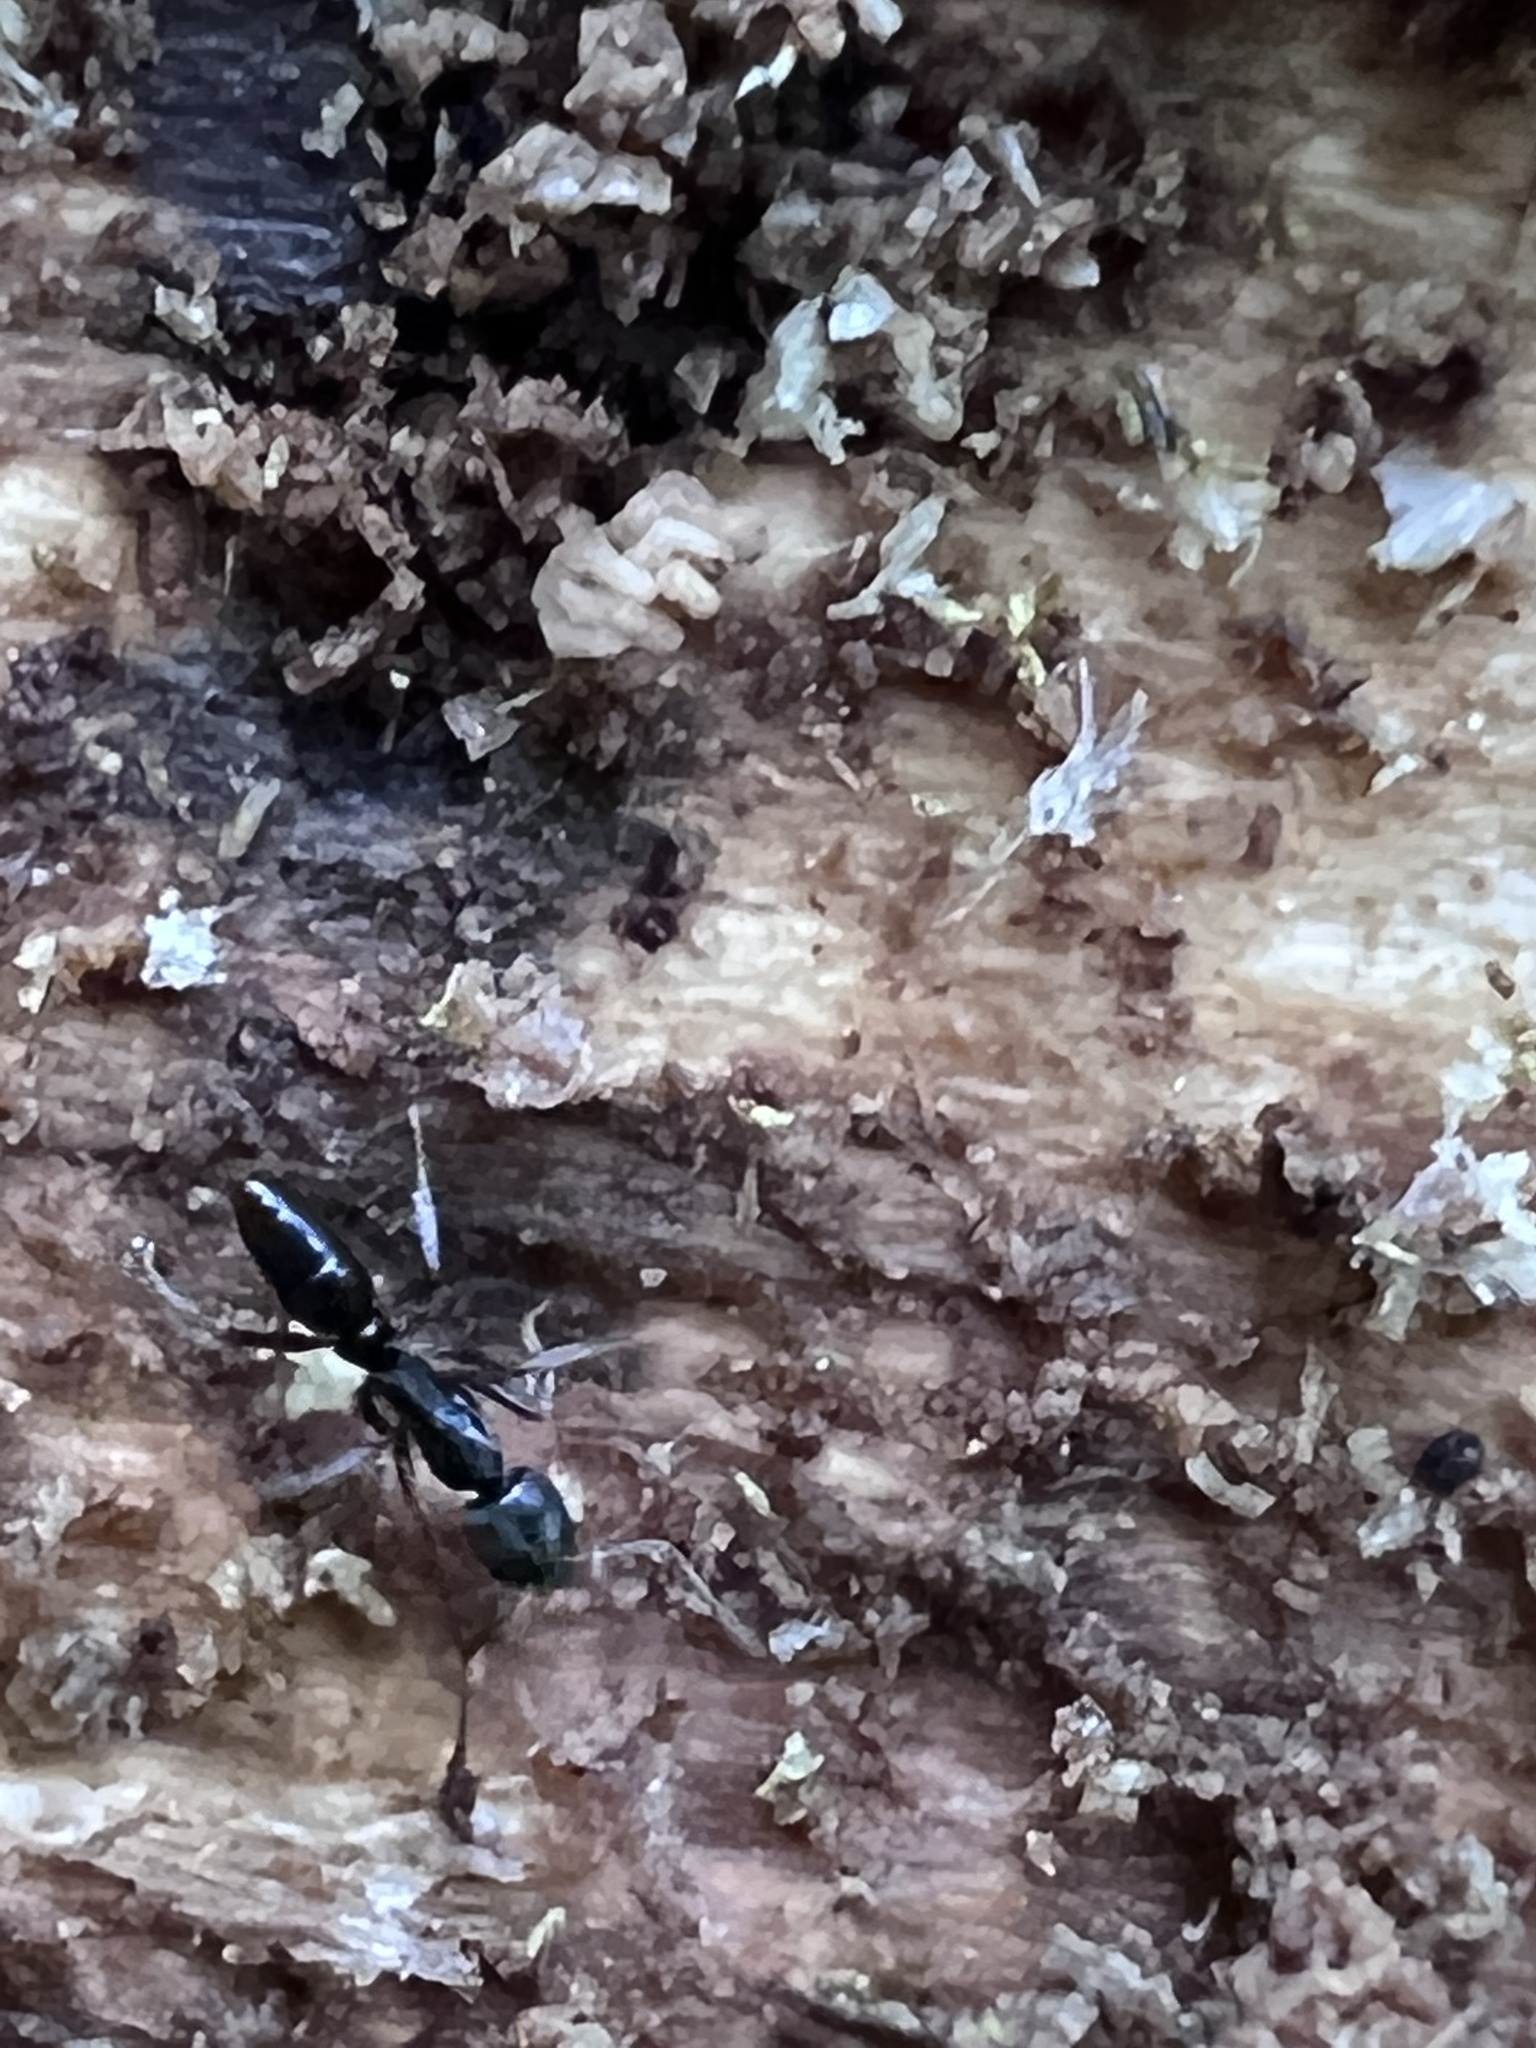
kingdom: Animalia
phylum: Arthropoda
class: Insecta
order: Hymenoptera
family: Formicidae
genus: Pachycondyla
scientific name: Pachycondyla chinensis
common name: Asian needle ant
